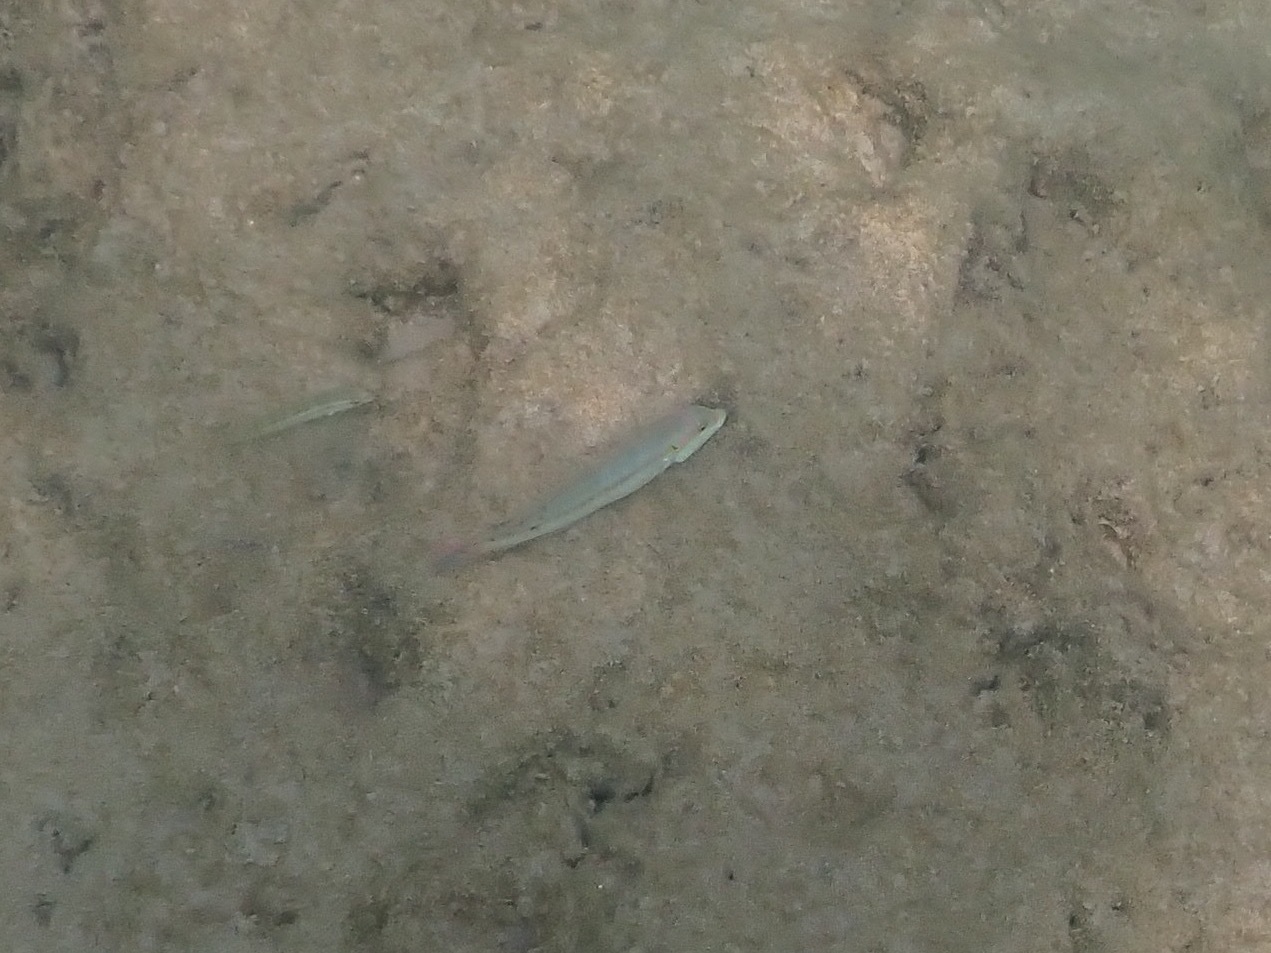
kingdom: Animalia
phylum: Chordata
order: Perciformes
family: Labridae
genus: Halichoeres
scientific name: Halichoeres bivittatus
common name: Slippery dick
